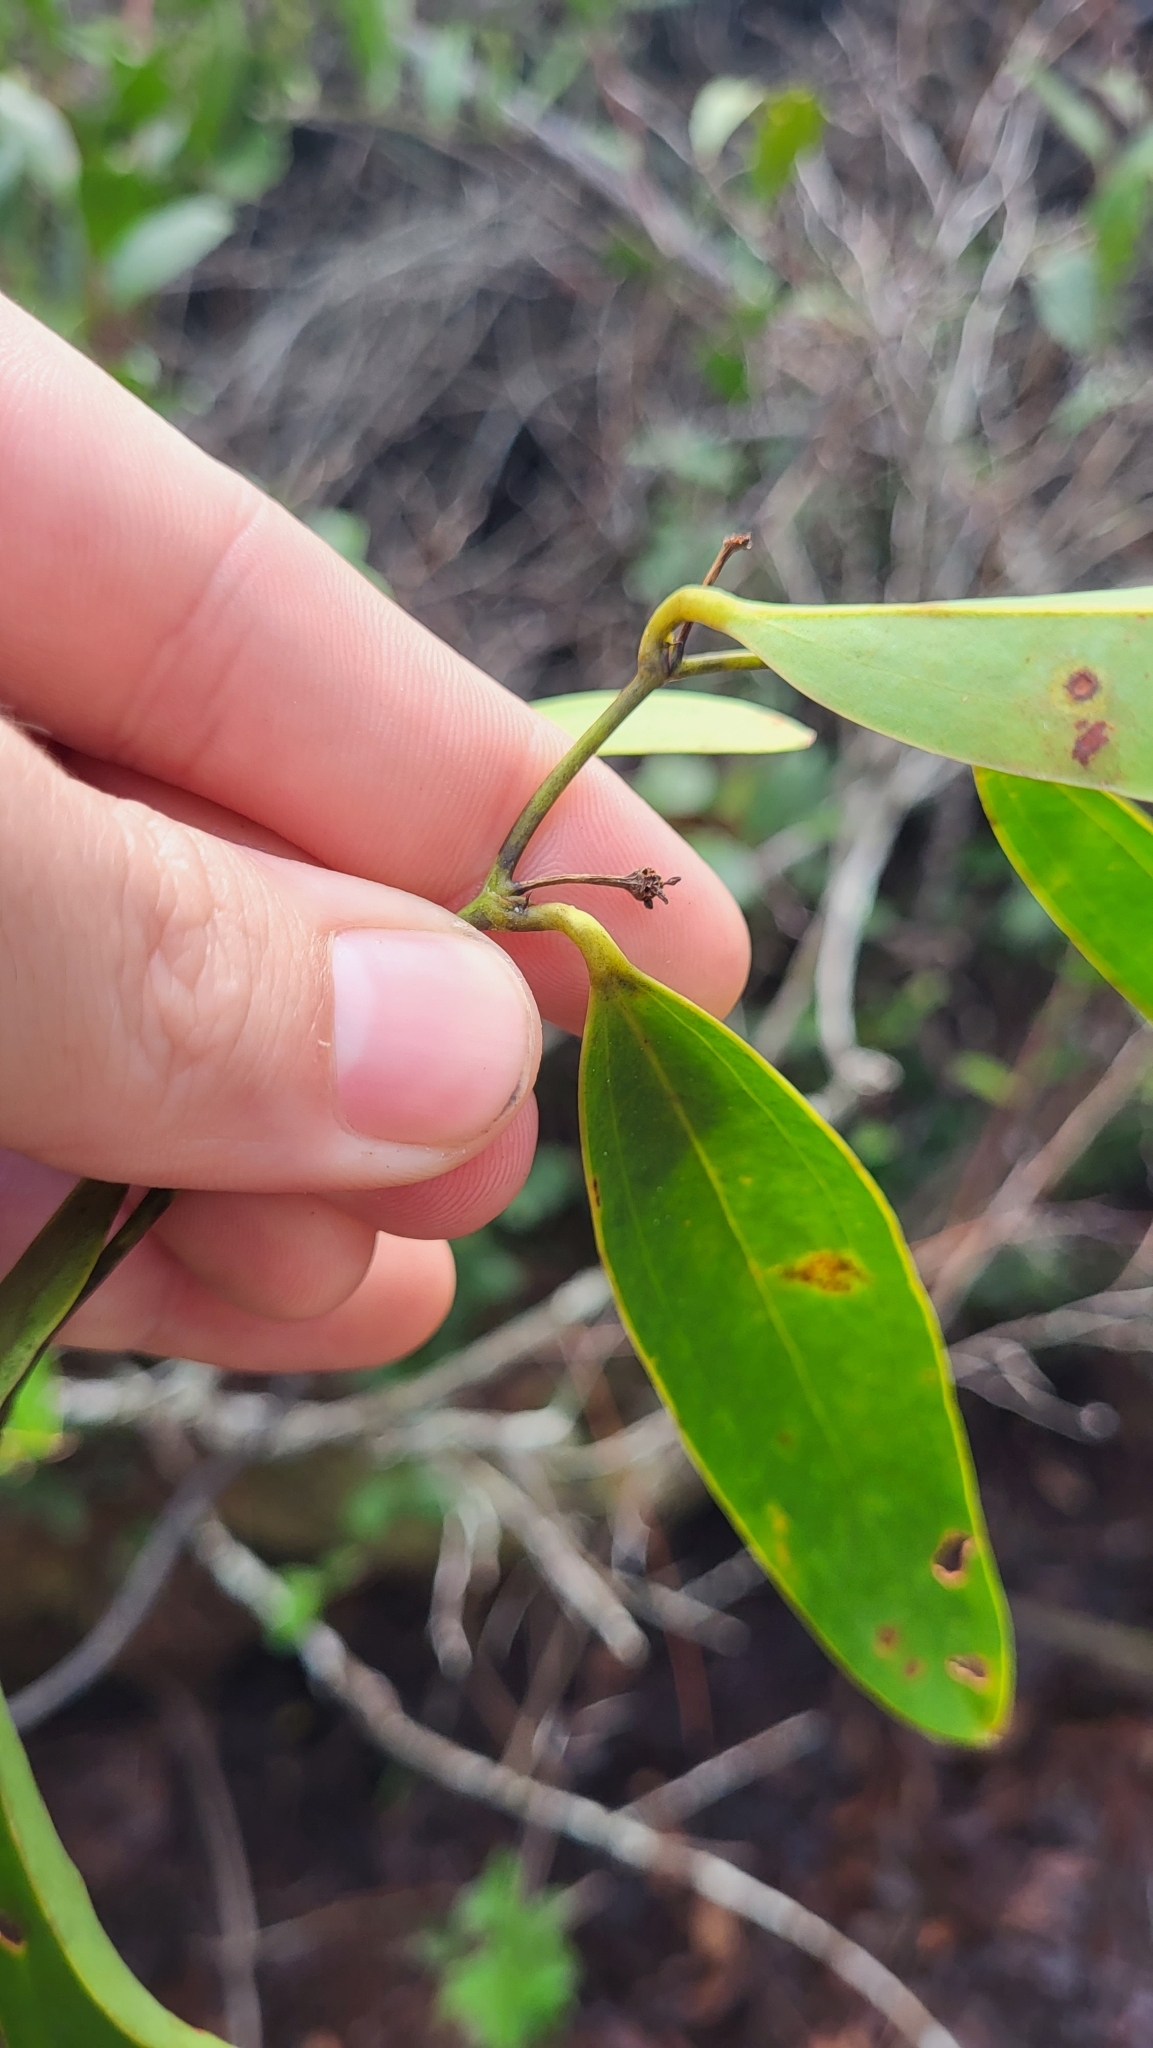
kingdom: Plantae
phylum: Tracheophyta
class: Liliopsida
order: Liliales
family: Smilacaceae
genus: Smilax
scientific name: Smilax laurifolia
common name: Bamboovine
